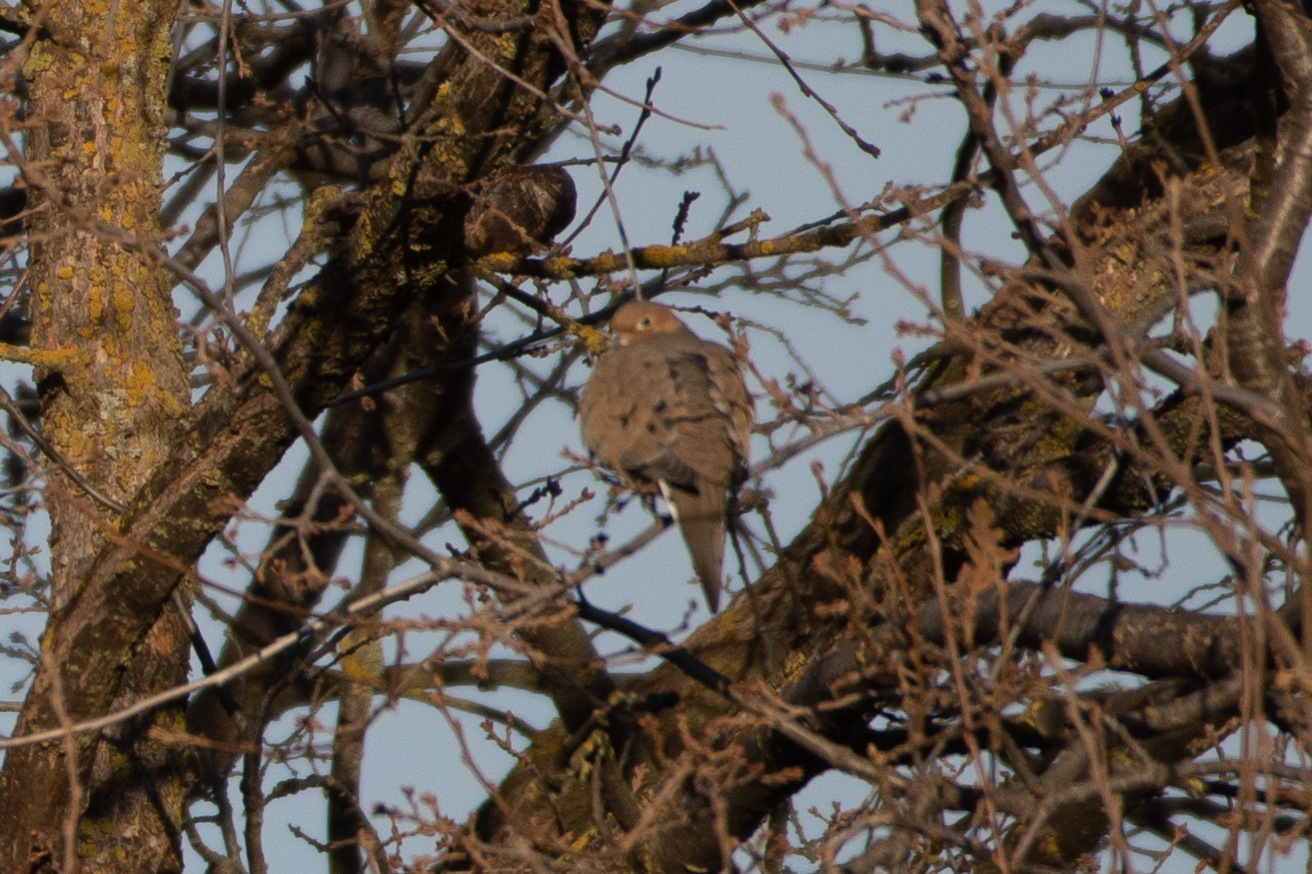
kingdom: Animalia
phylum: Chordata
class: Aves
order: Columbiformes
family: Columbidae
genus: Zenaida
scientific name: Zenaida macroura
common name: Mourning dove
